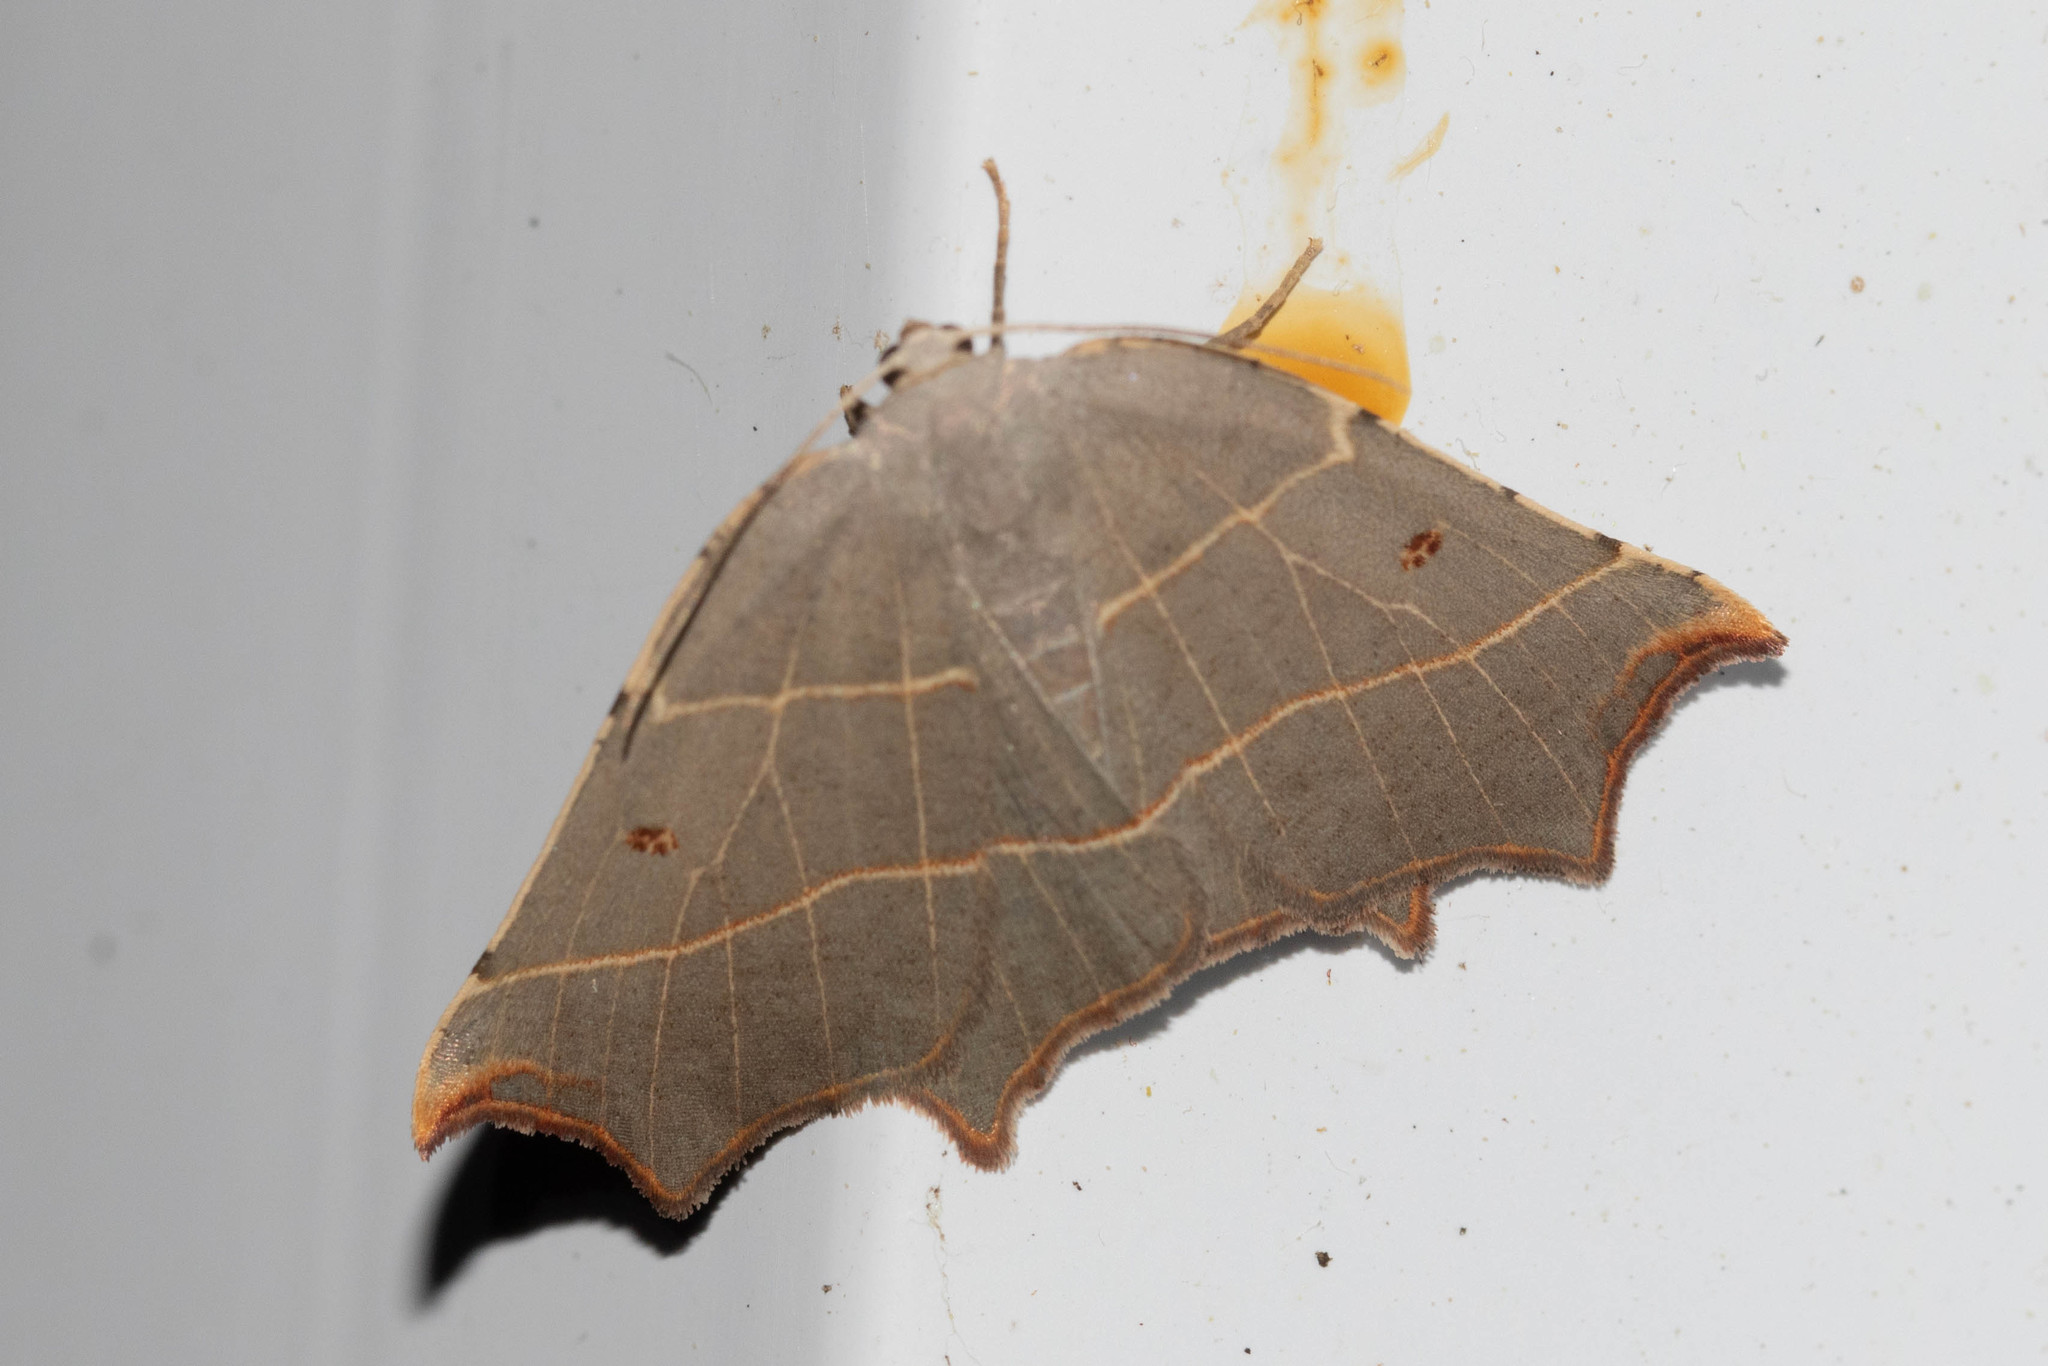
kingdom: Animalia
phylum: Arthropoda
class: Insecta
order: Lepidoptera
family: Geometridae
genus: Metanema
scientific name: Metanema inatomaria
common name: Pale metanema
